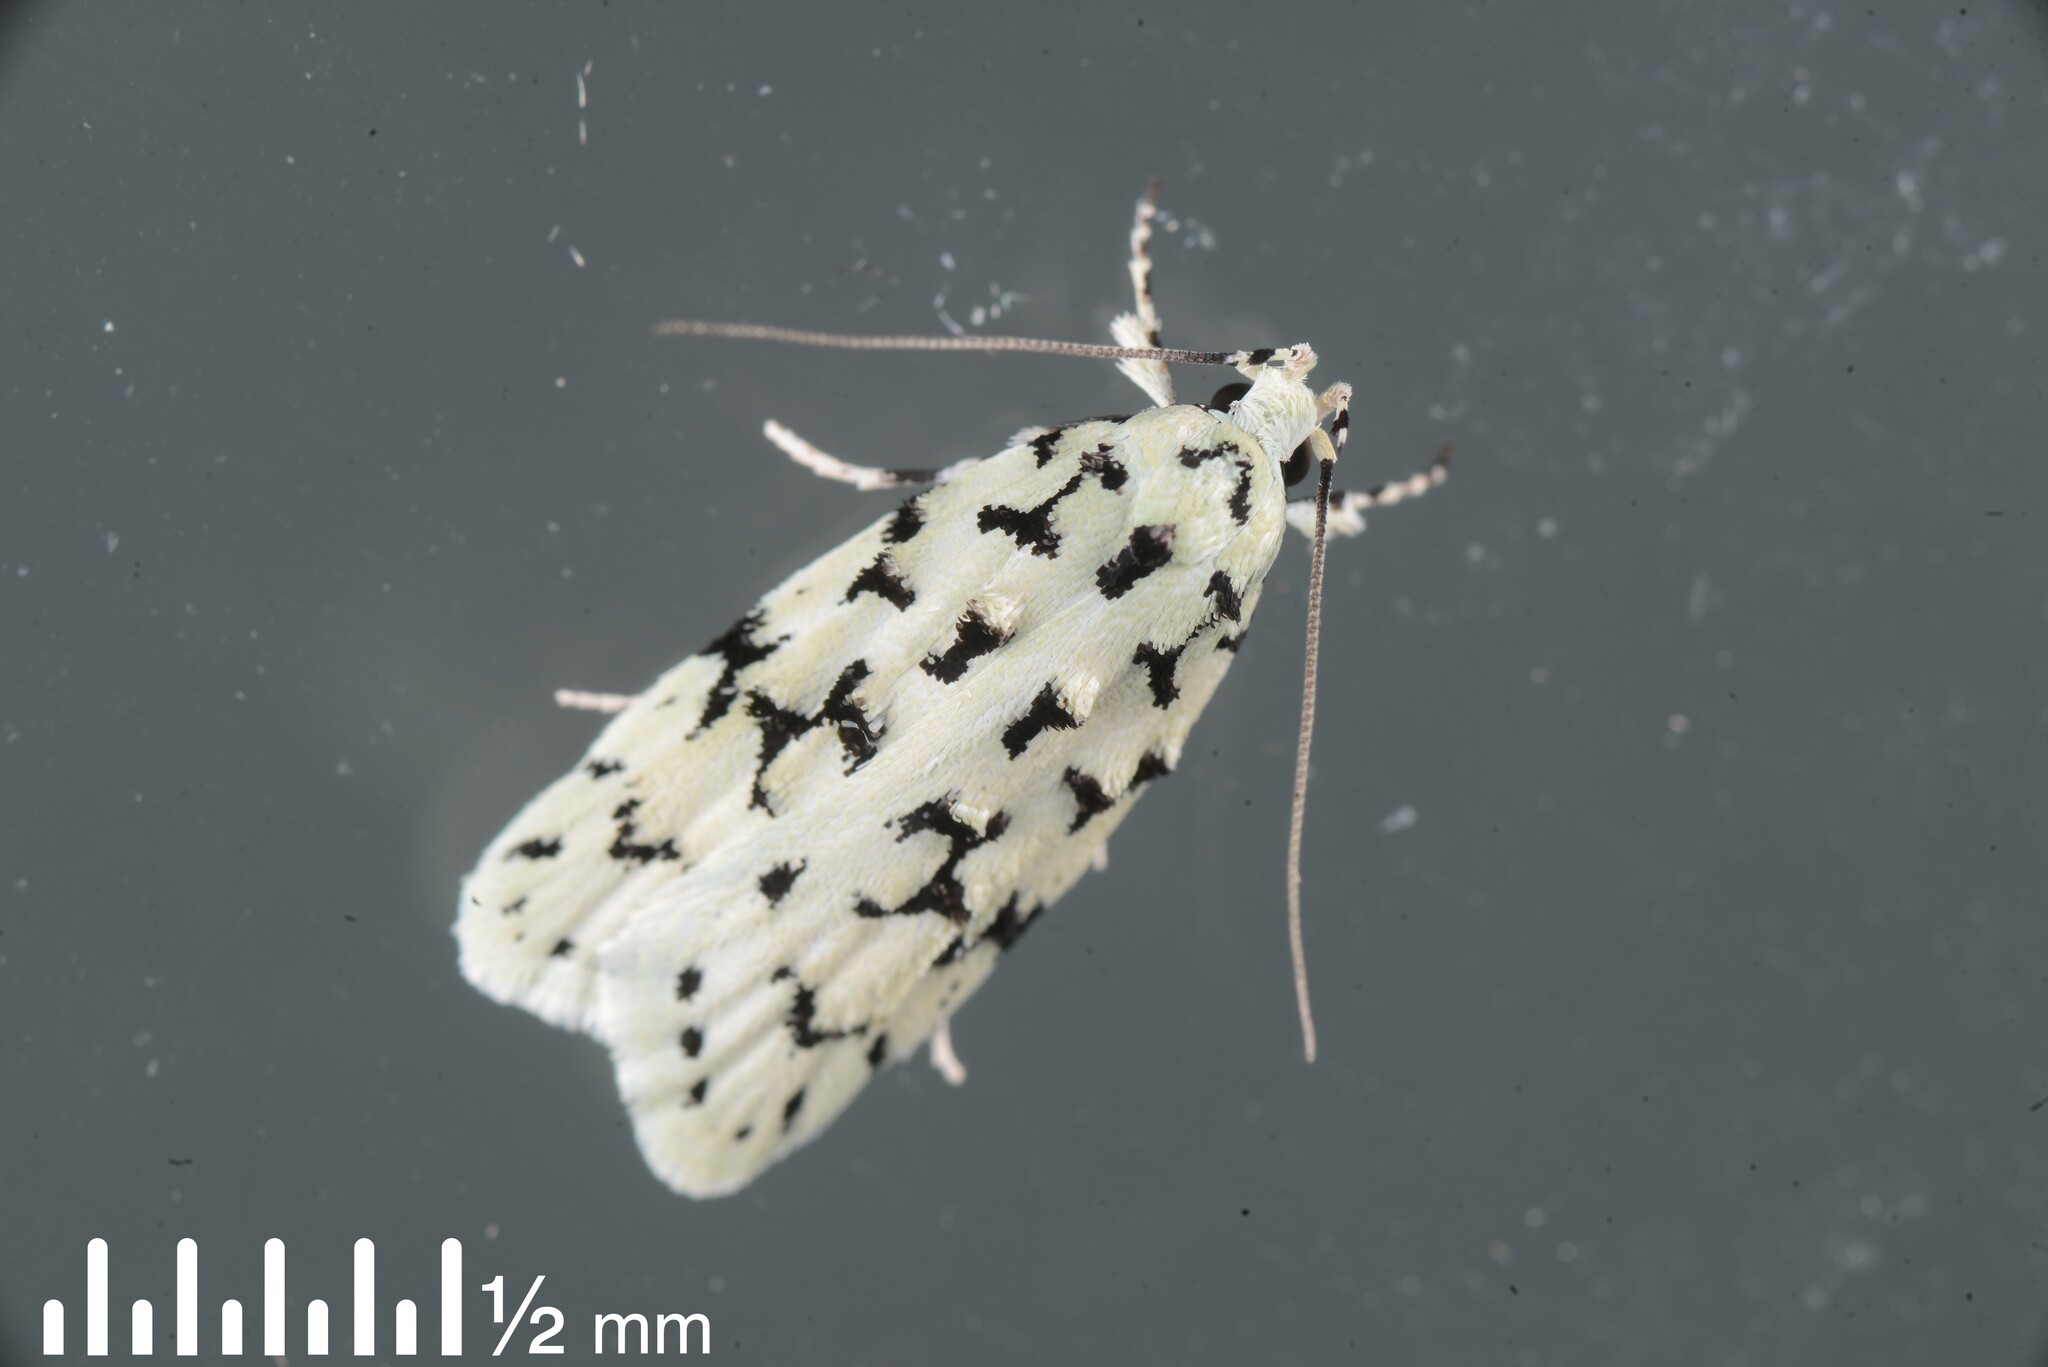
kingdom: Animalia
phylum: Arthropoda
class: Insecta
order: Lepidoptera
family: Oecophoridae
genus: Izatha
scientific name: Izatha huttoni
